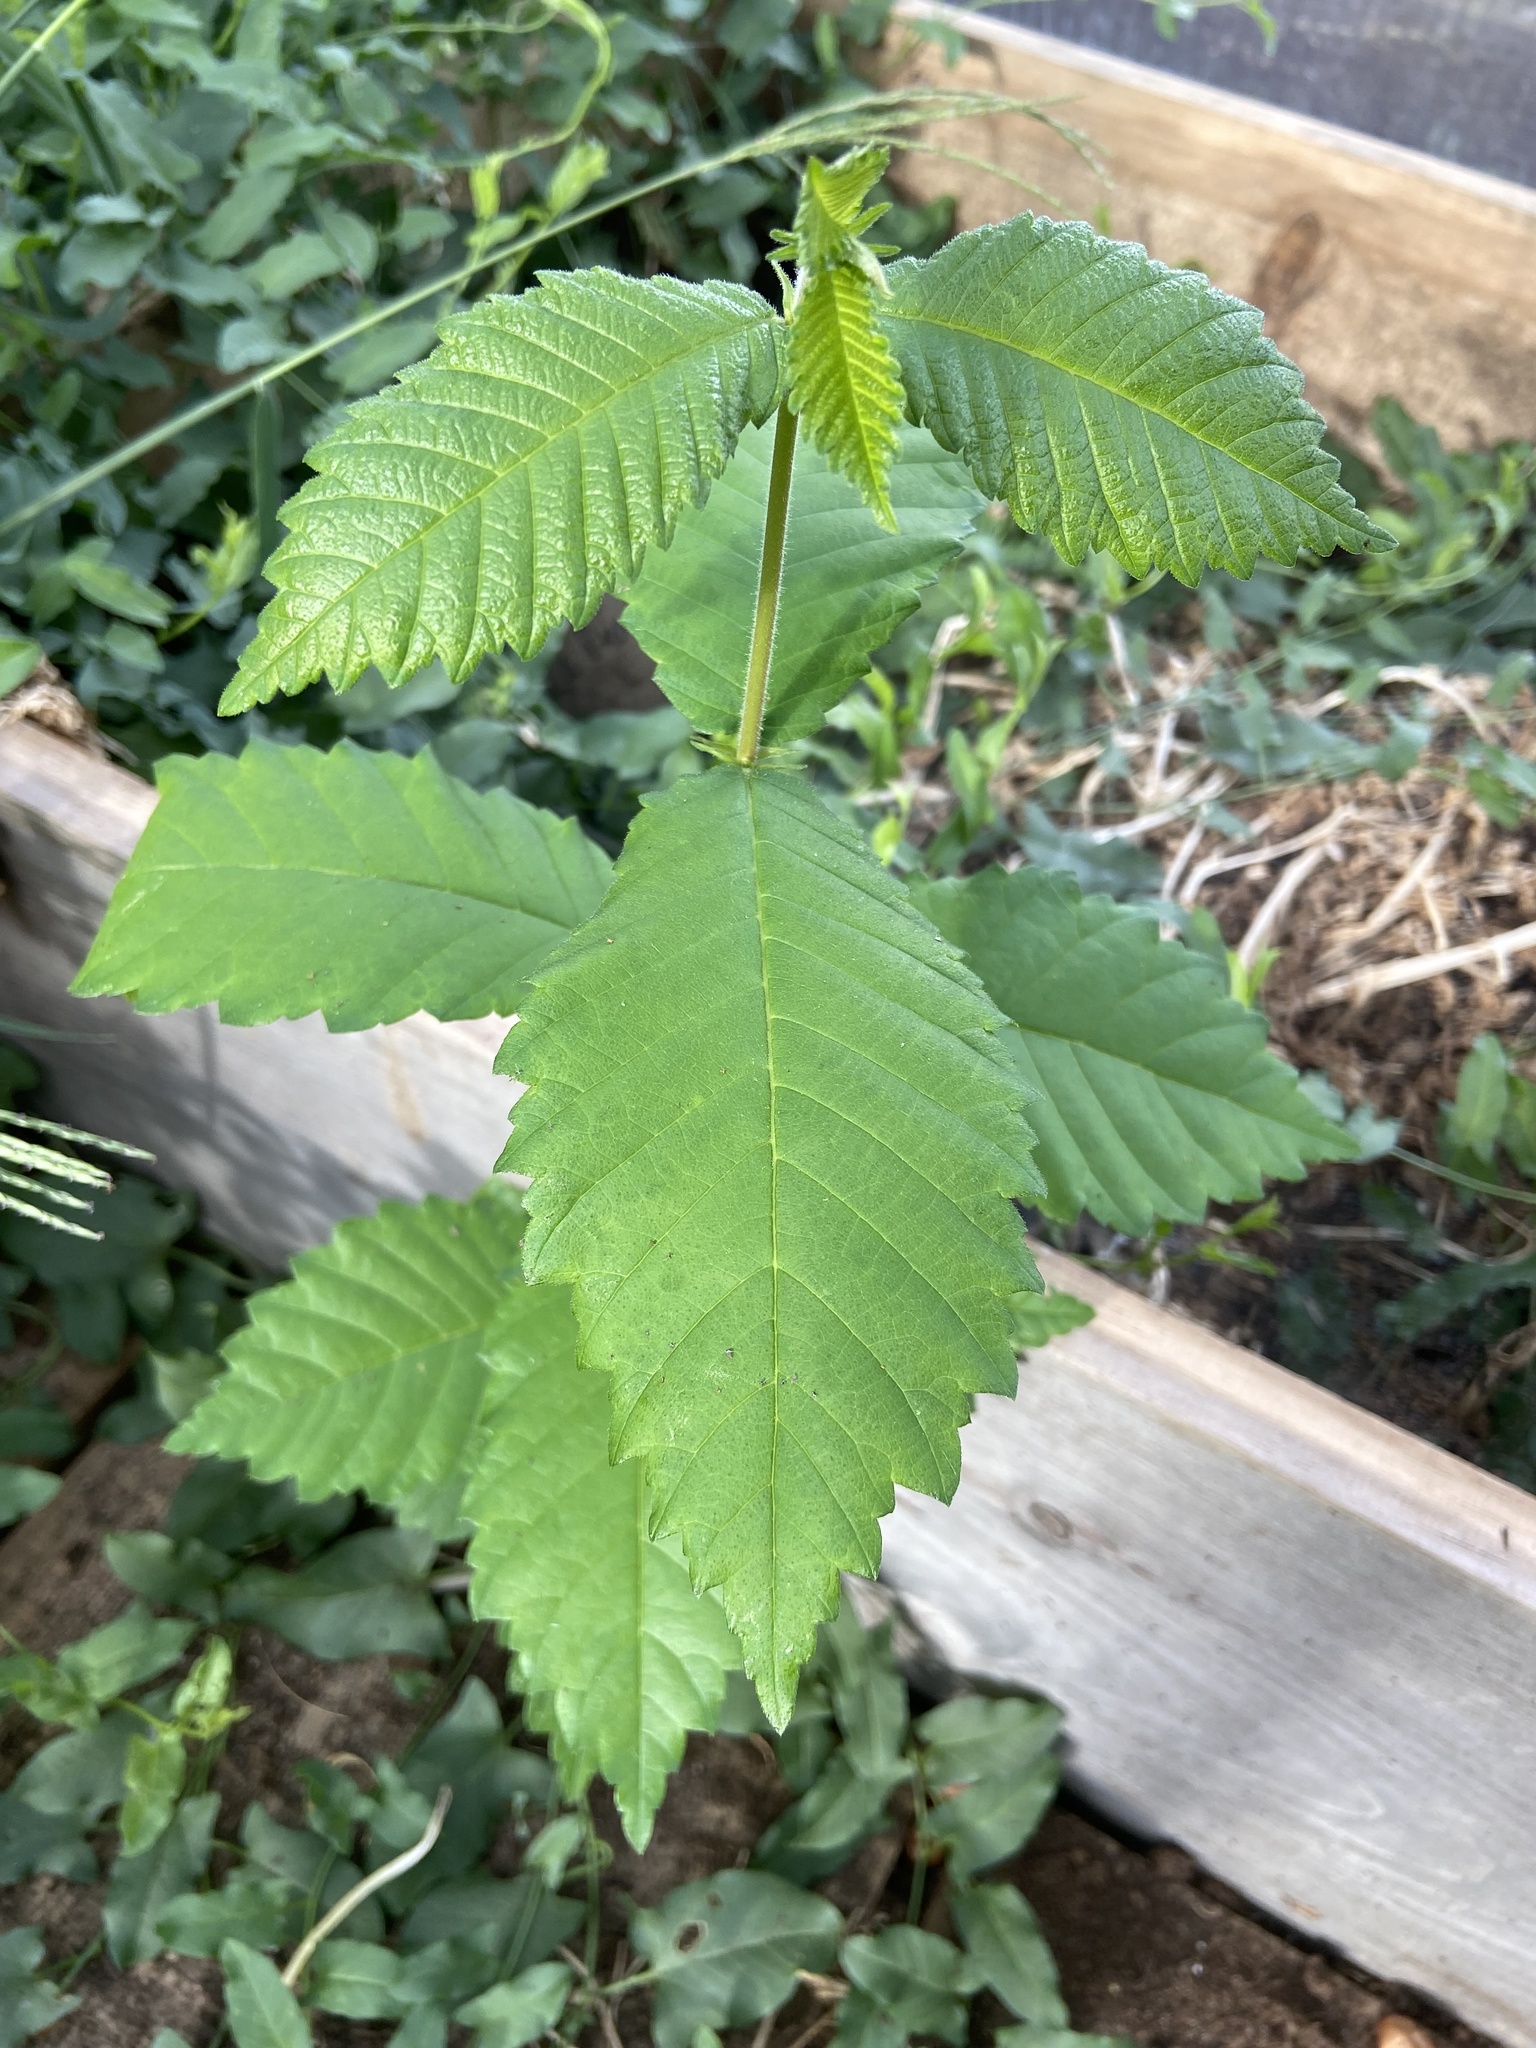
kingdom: Plantae
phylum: Tracheophyta
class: Magnoliopsida
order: Rosales
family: Ulmaceae
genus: Ulmus
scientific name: Ulmus americana
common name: American elm
